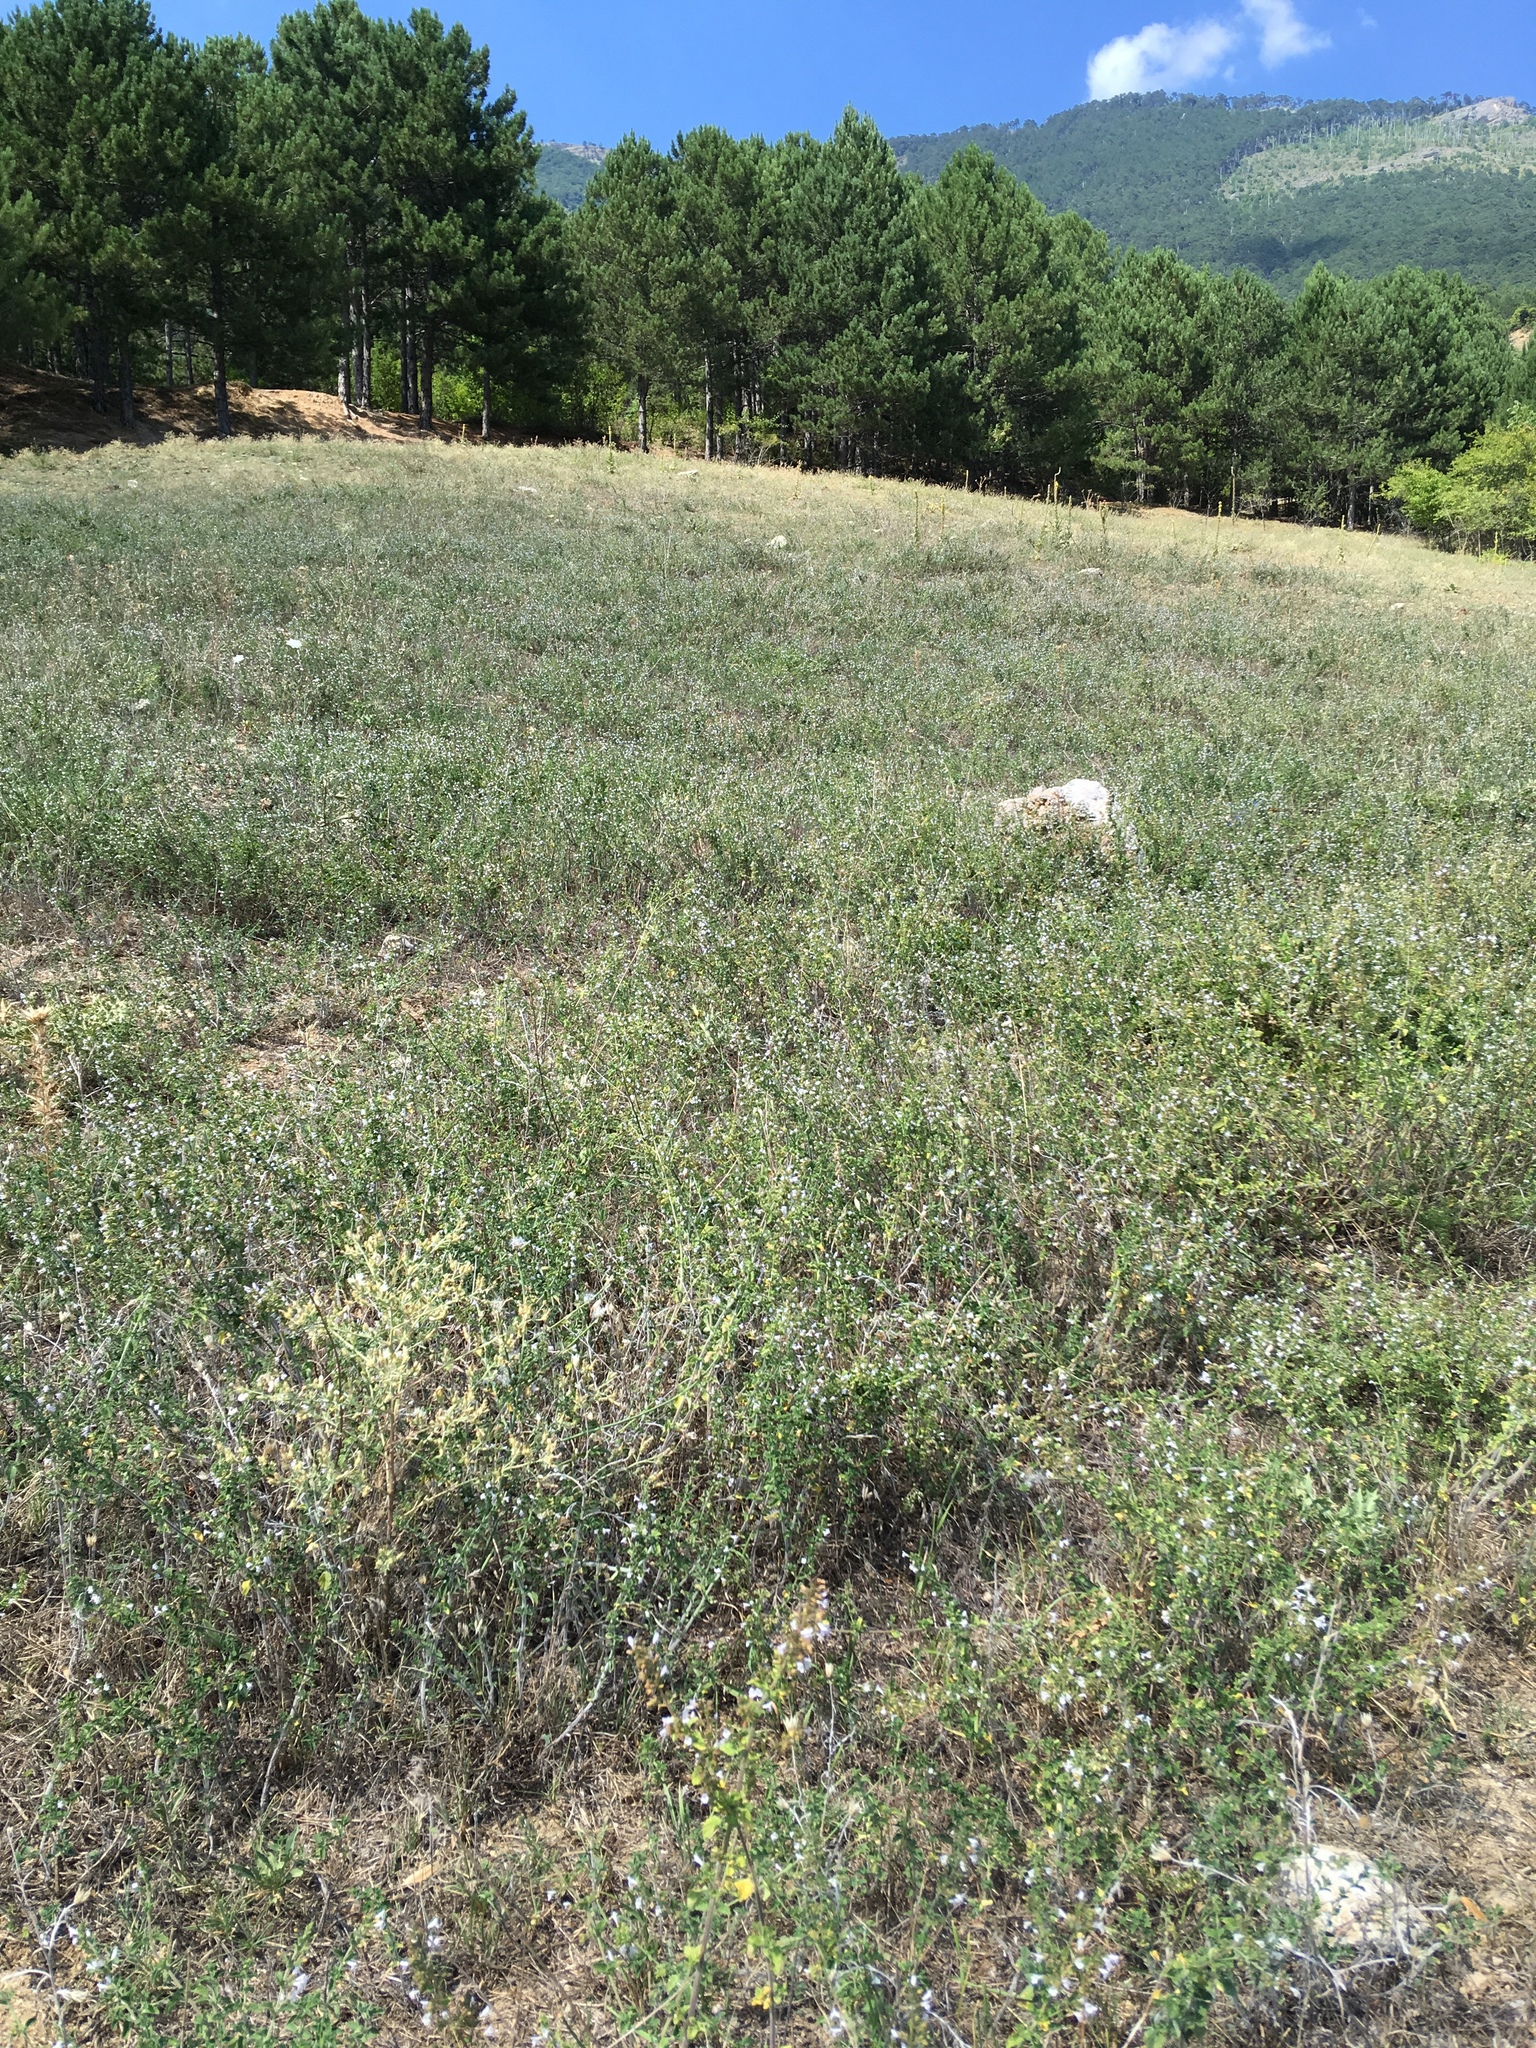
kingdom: Plantae
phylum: Tracheophyta
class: Magnoliopsida
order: Lamiales
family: Lamiaceae
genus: Clinopodium
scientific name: Clinopodium acinos
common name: Basil thyme
